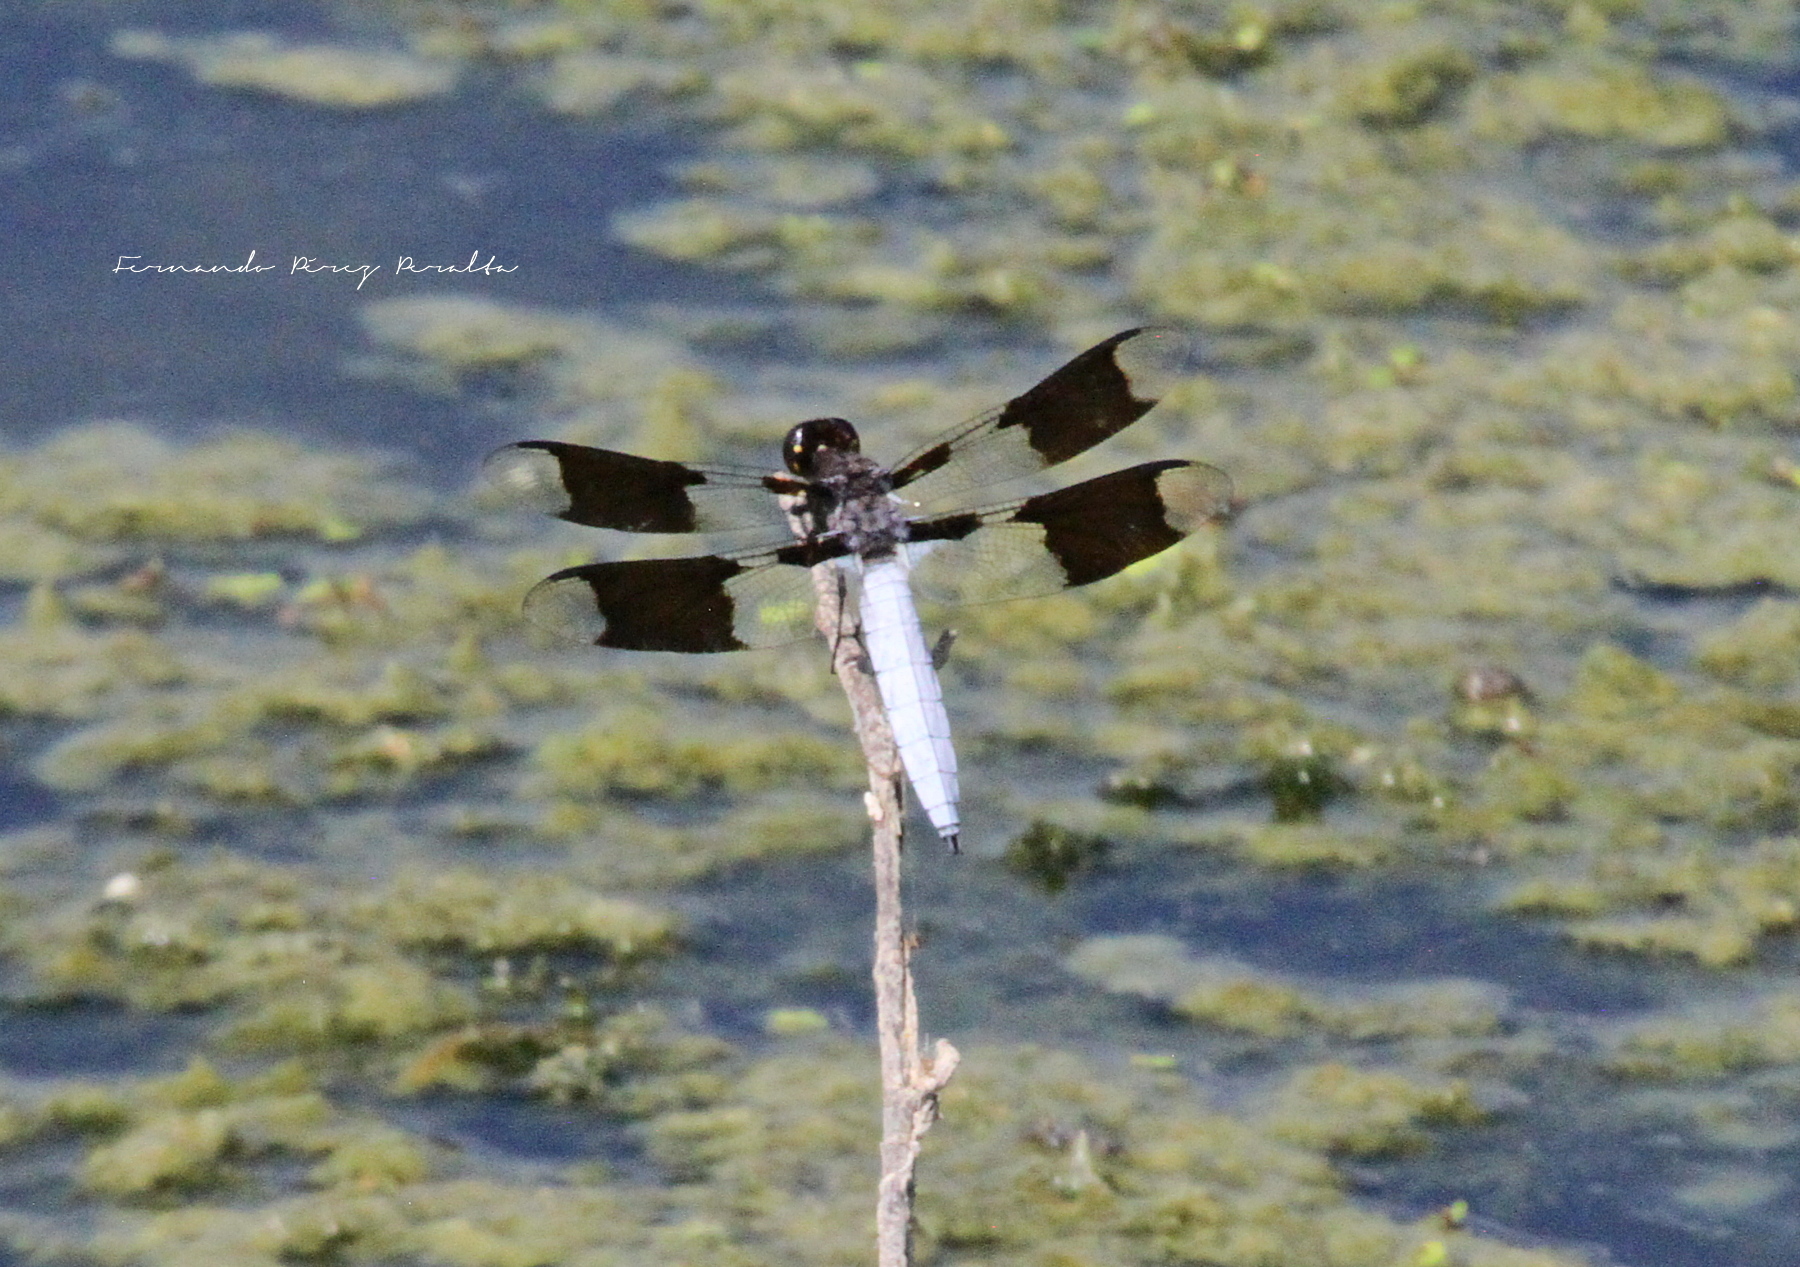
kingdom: Animalia
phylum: Arthropoda
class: Insecta
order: Odonata
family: Libellulidae
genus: Plathemis
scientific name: Plathemis lydia
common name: Common whitetail
